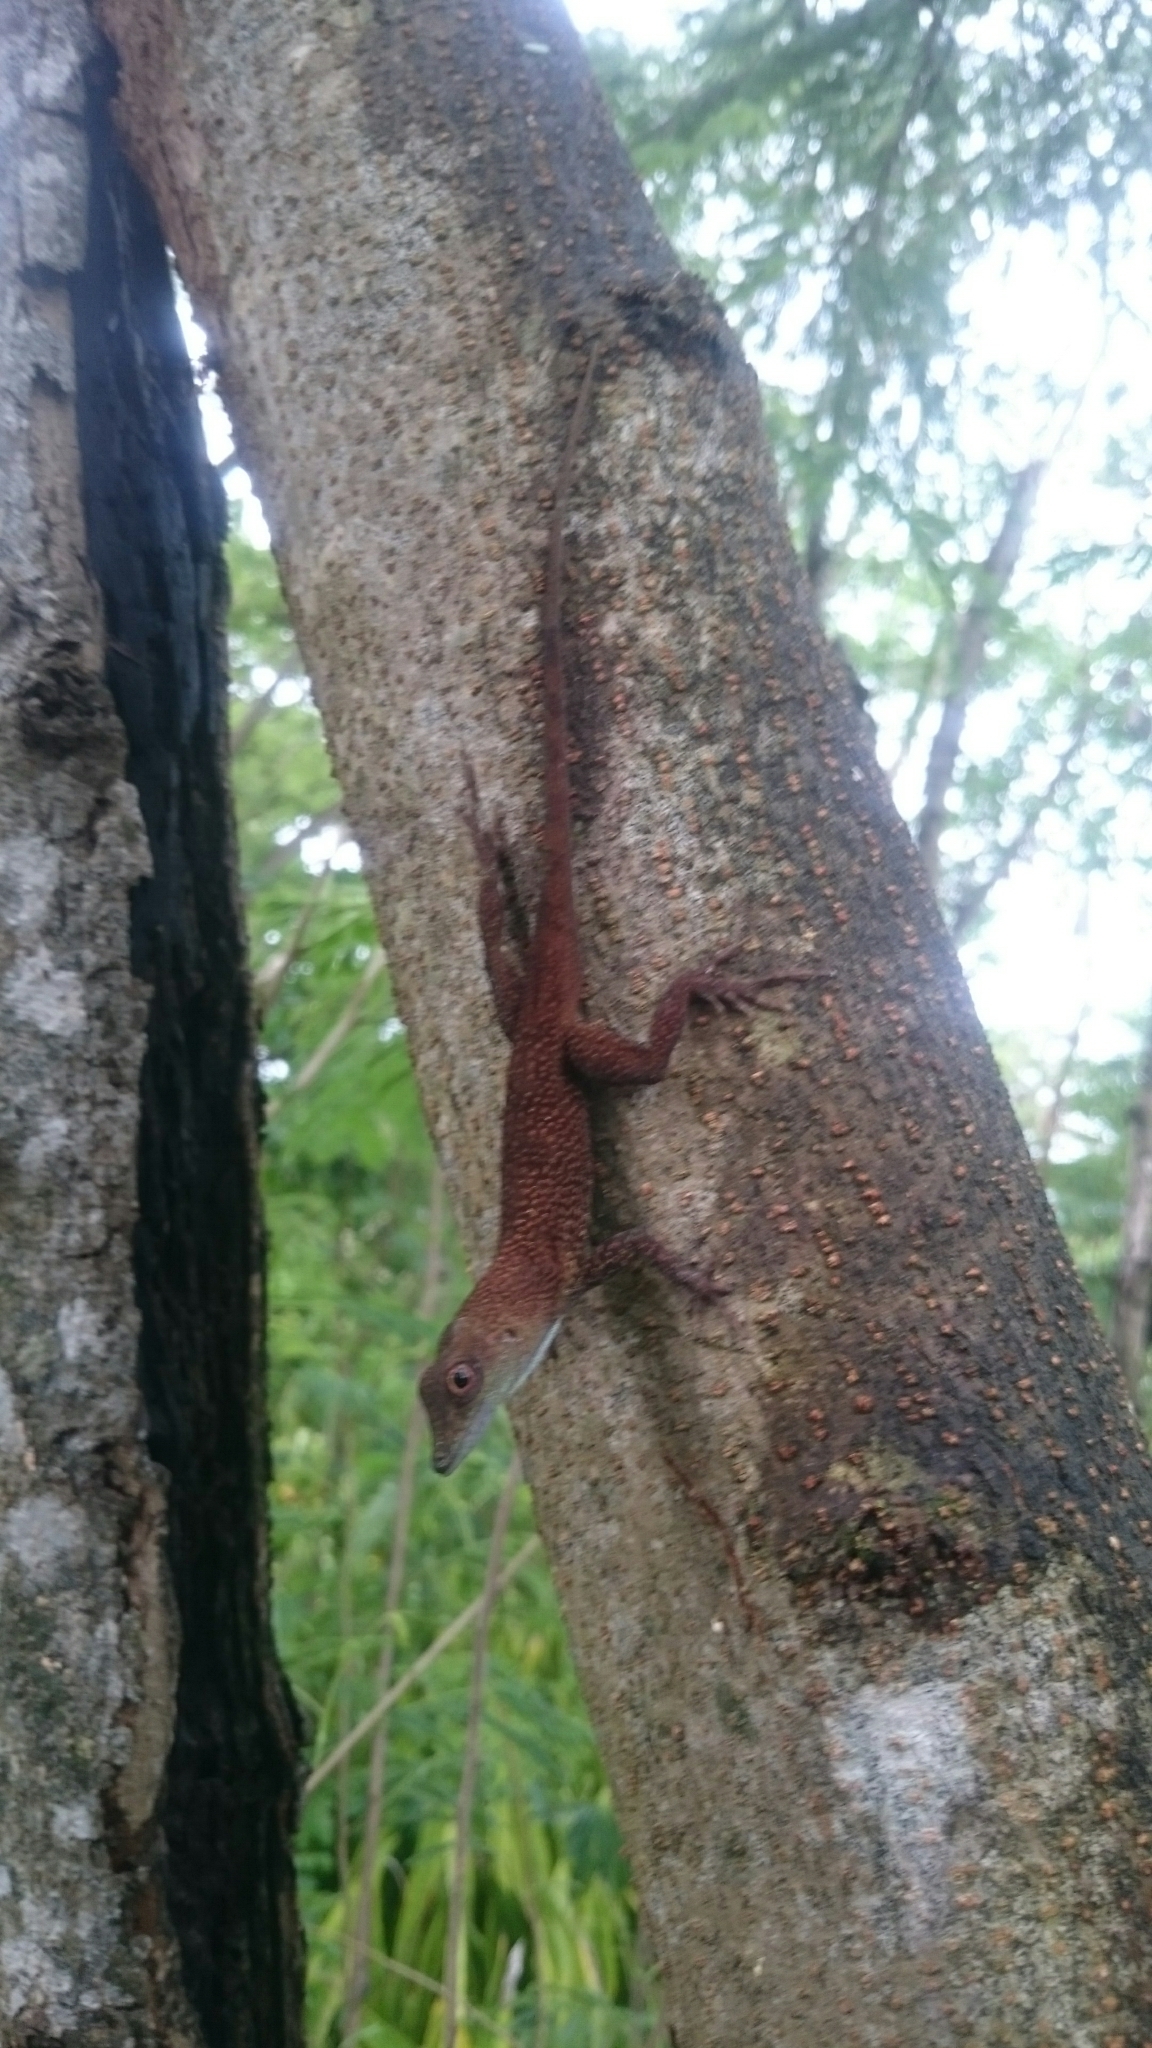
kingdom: Animalia
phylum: Chordata
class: Squamata
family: Dactyloidae
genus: Anolis
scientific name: Anolis conspersus
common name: Grand cayman anole
